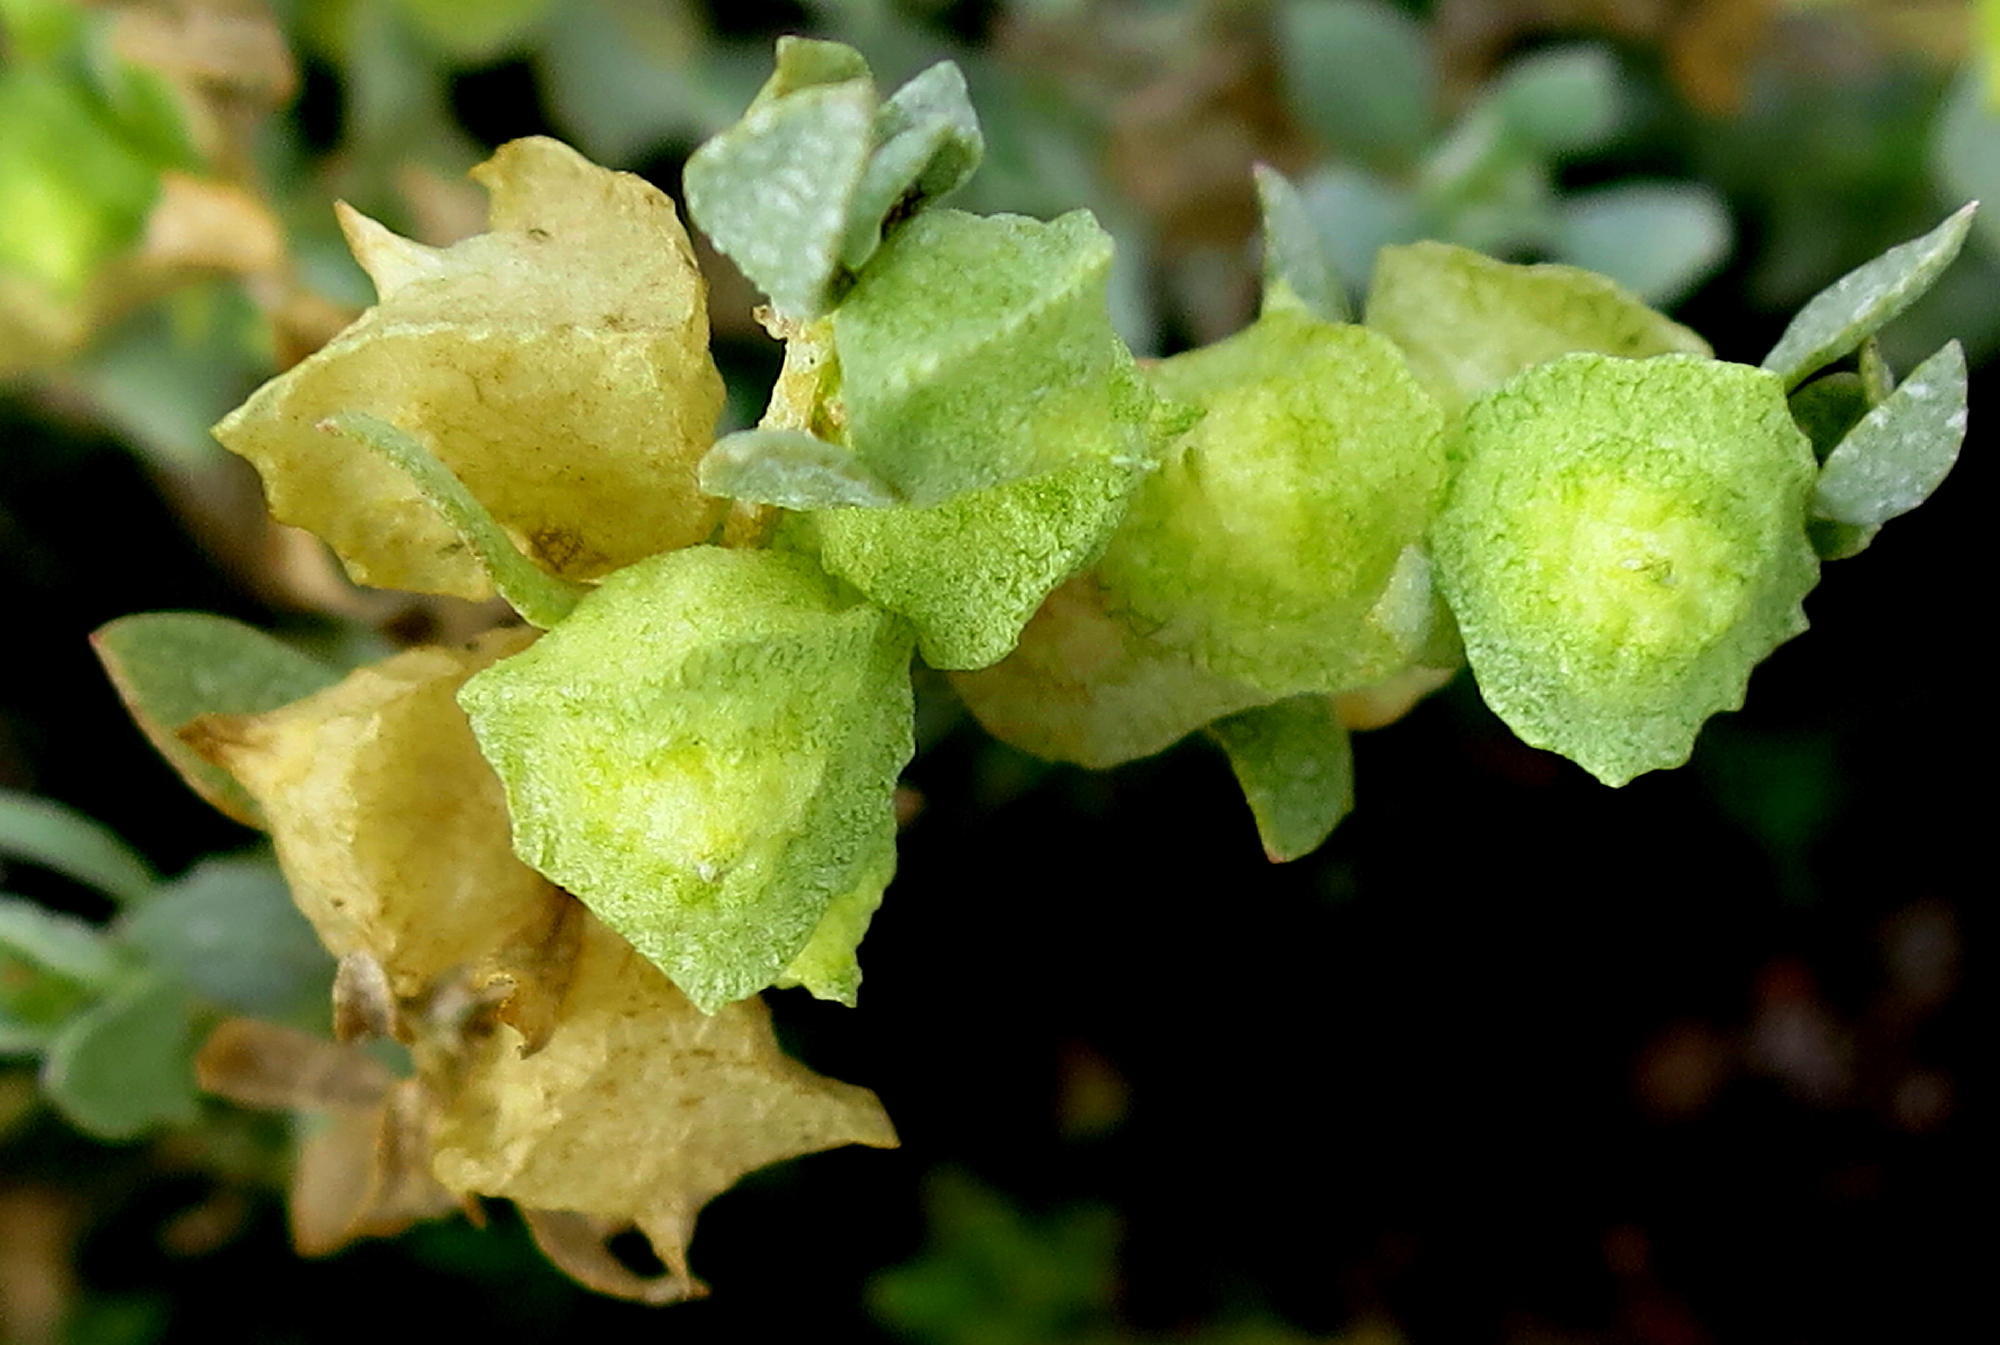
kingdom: Plantae
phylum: Tracheophyta
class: Magnoliopsida
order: Caryophyllales
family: Amaranthaceae
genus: Atriplex
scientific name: Atriplex lindleyi
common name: Lindley's saltbush
